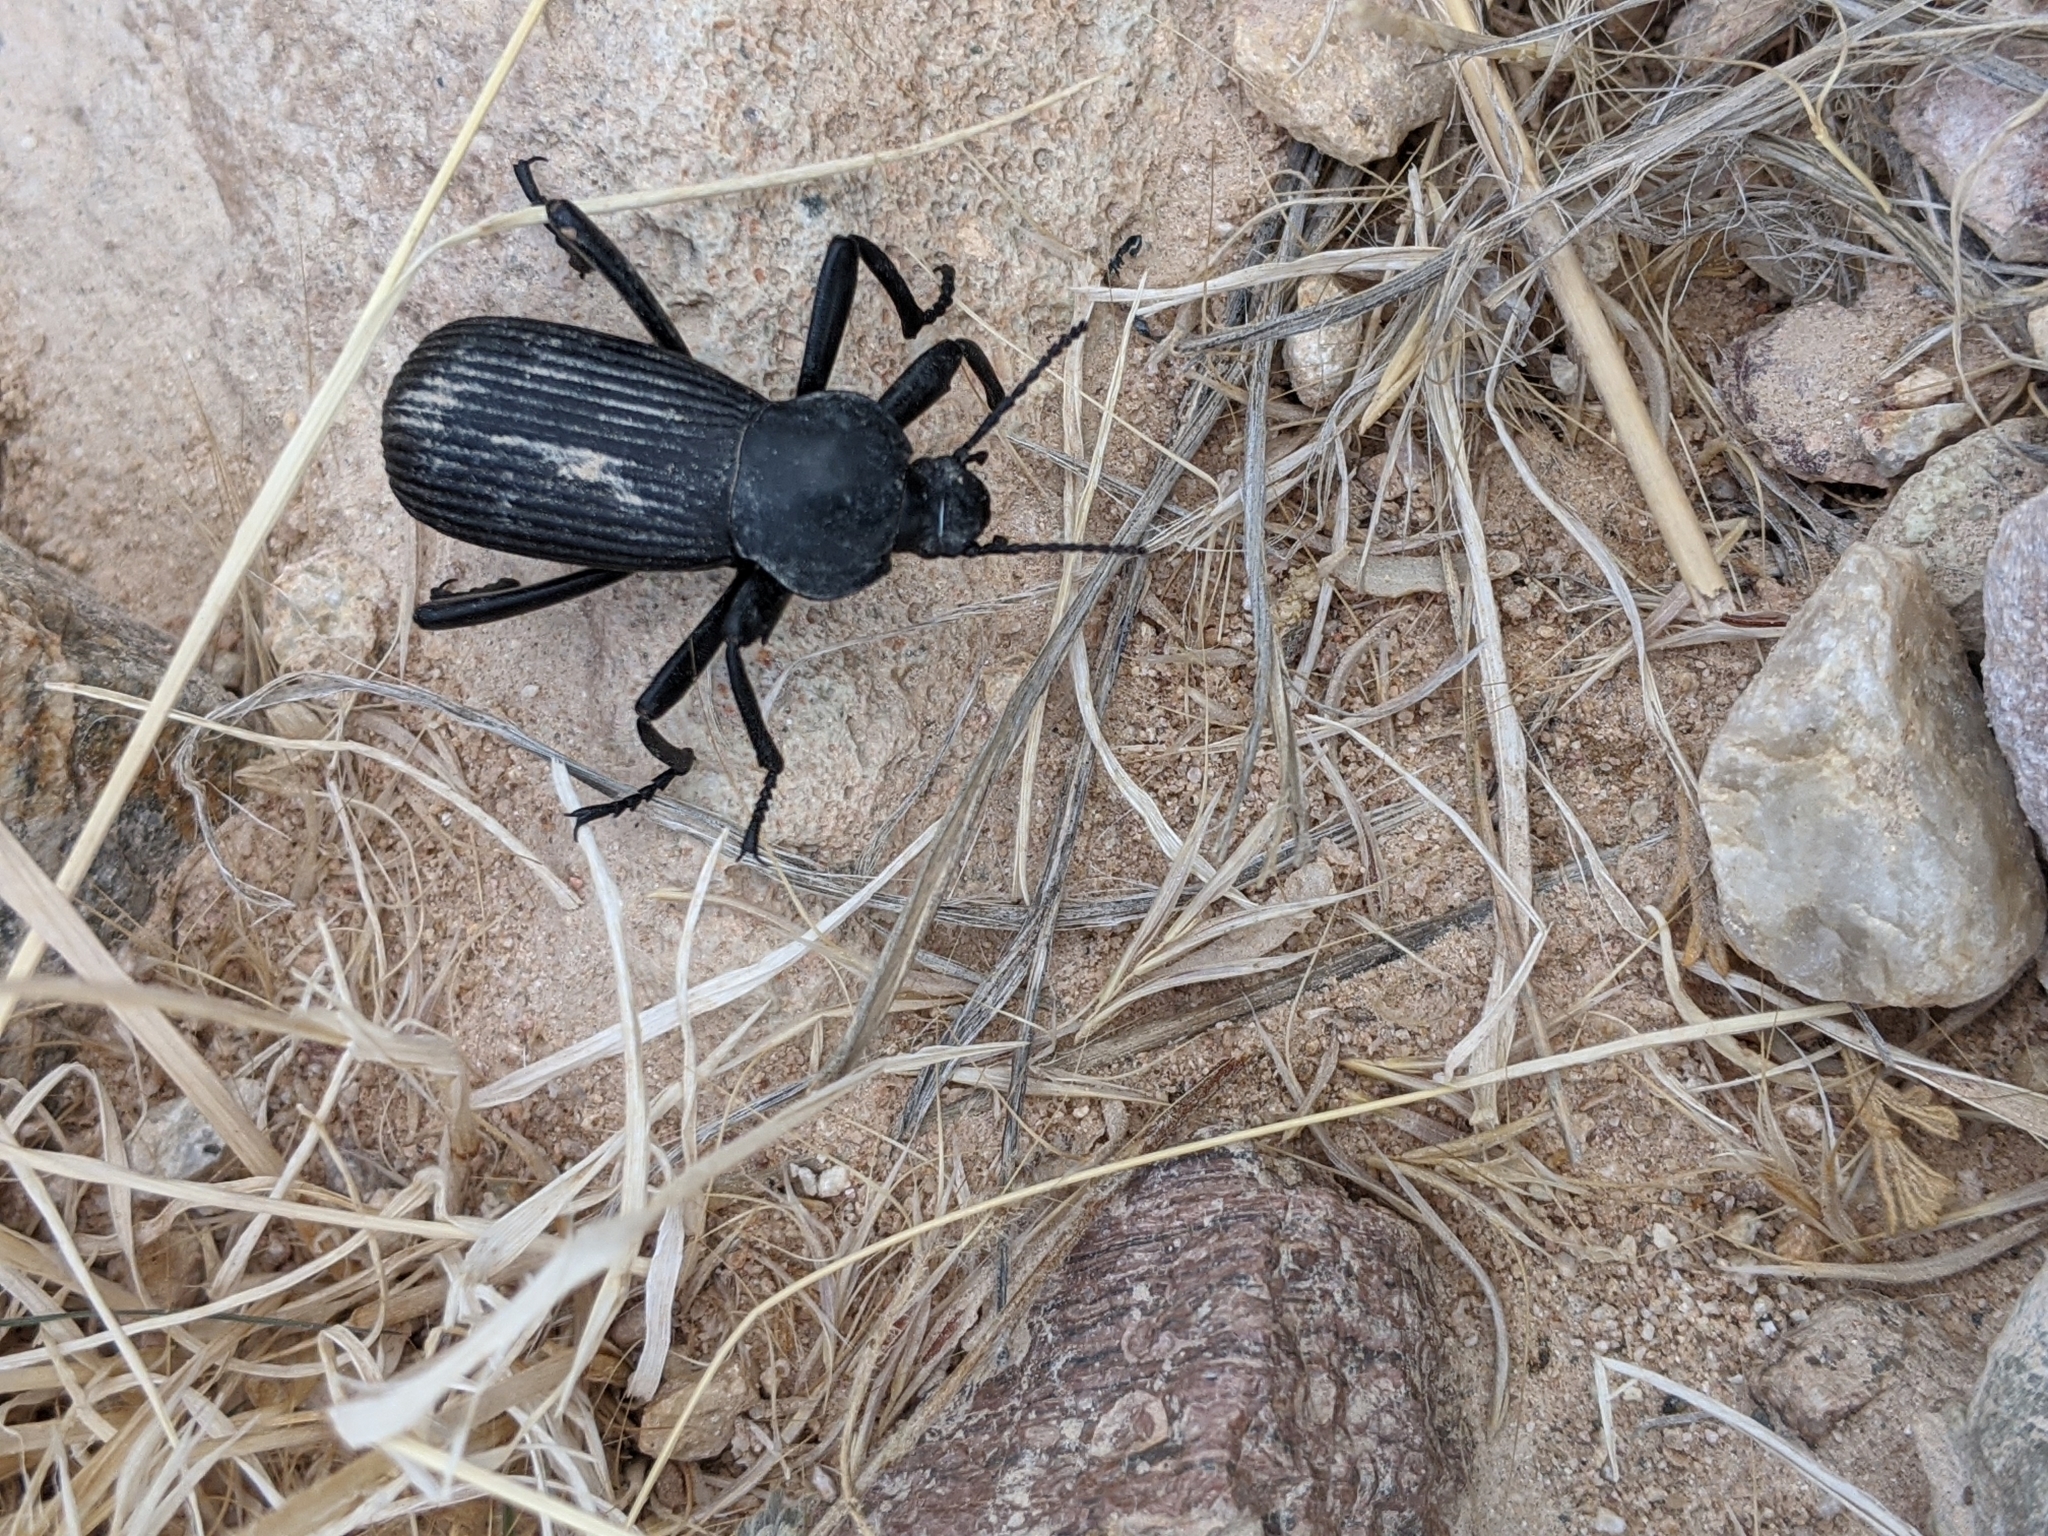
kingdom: Animalia
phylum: Arthropoda
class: Insecta
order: Coleoptera
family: Tenebrionidae
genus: Eleodes
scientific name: Eleodes obscura
